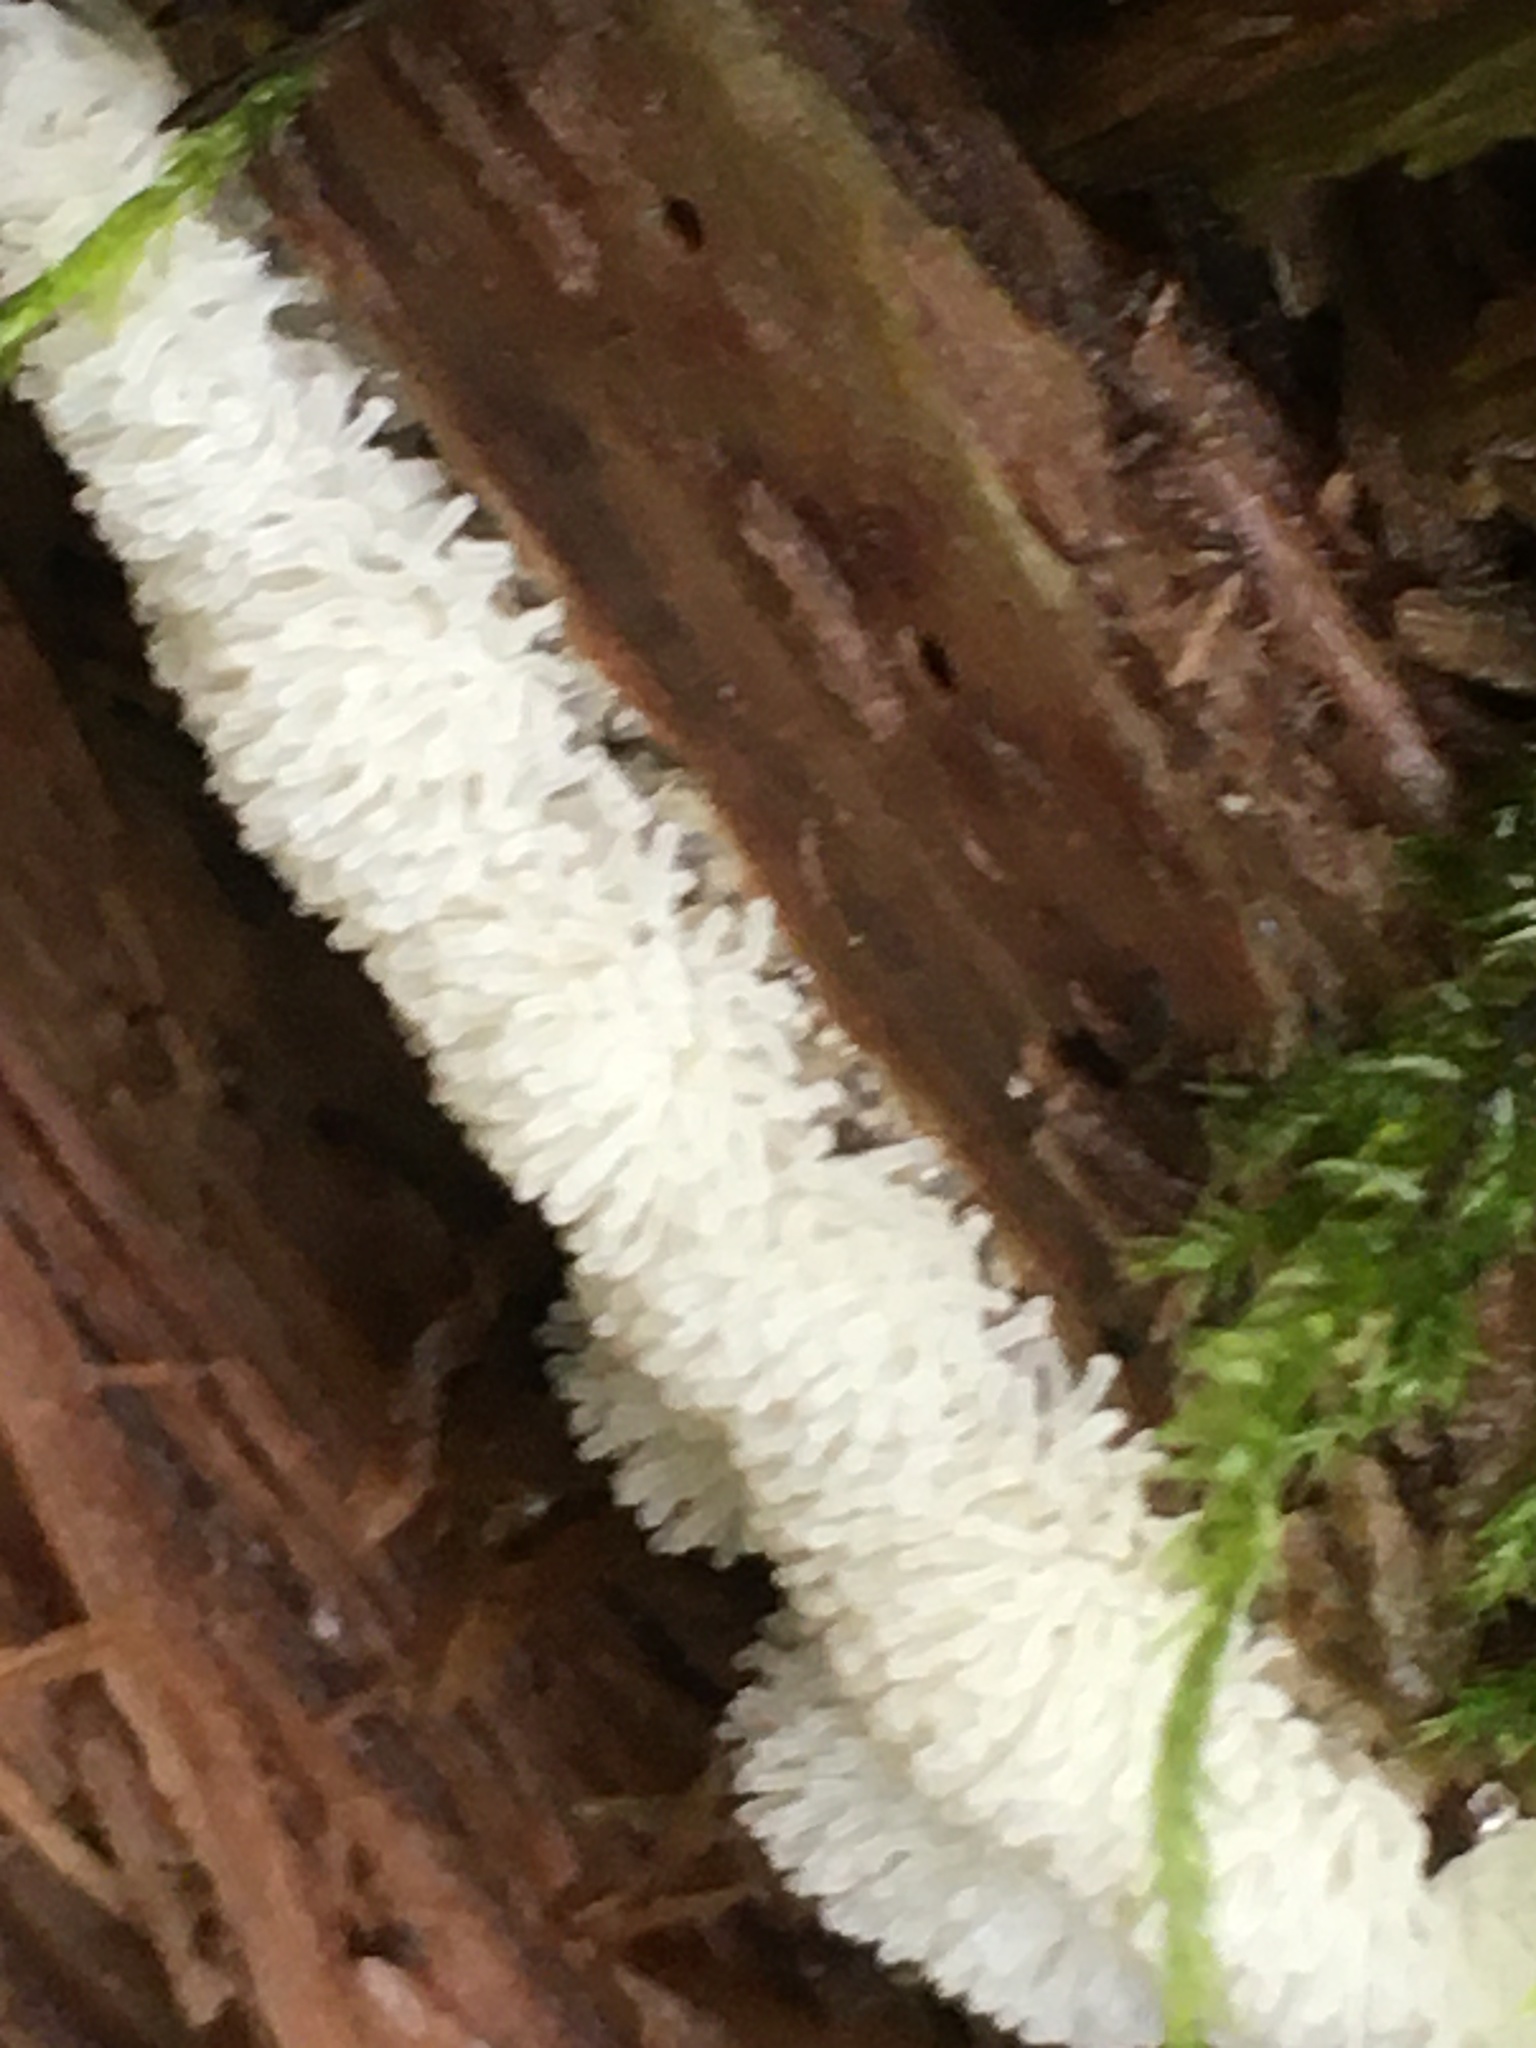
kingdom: Protozoa
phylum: Mycetozoa
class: Protosteliomycetes
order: Ceratiomyxales
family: Ceratiomyxaceae
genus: Ceratiomyxa
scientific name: Ceratiomyxa fruticulosa
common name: Honeycomb coral slime mold
